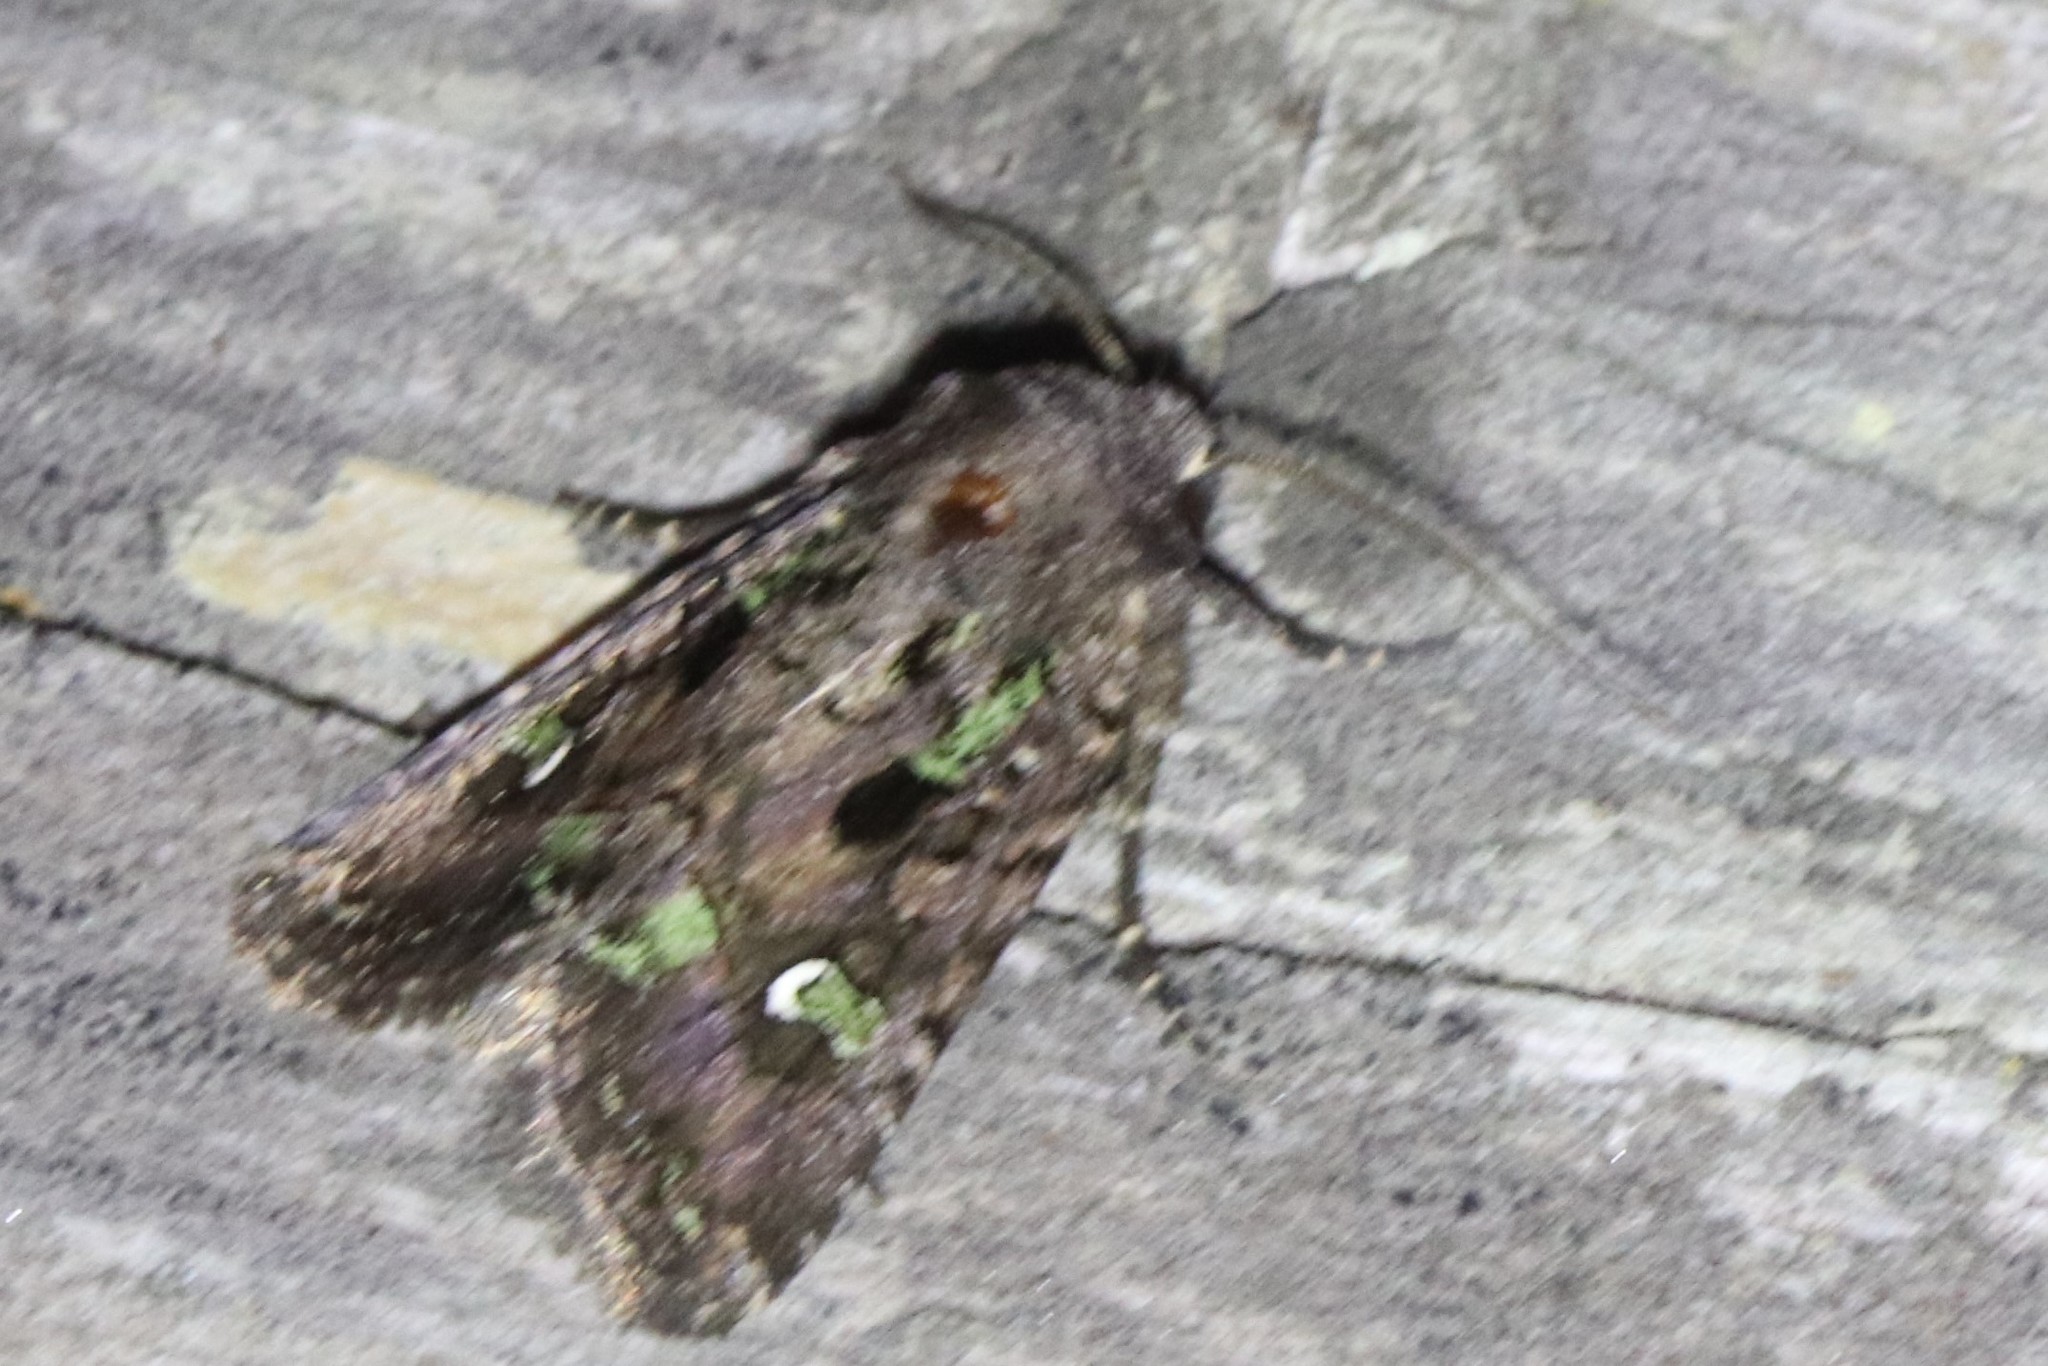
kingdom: Animalia
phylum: Arthropoda
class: Insecta
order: Lepidoptera
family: Noctuidae
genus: Lacinipolia
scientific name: Lacinipolia renigera
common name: Kidney-spotted minor
